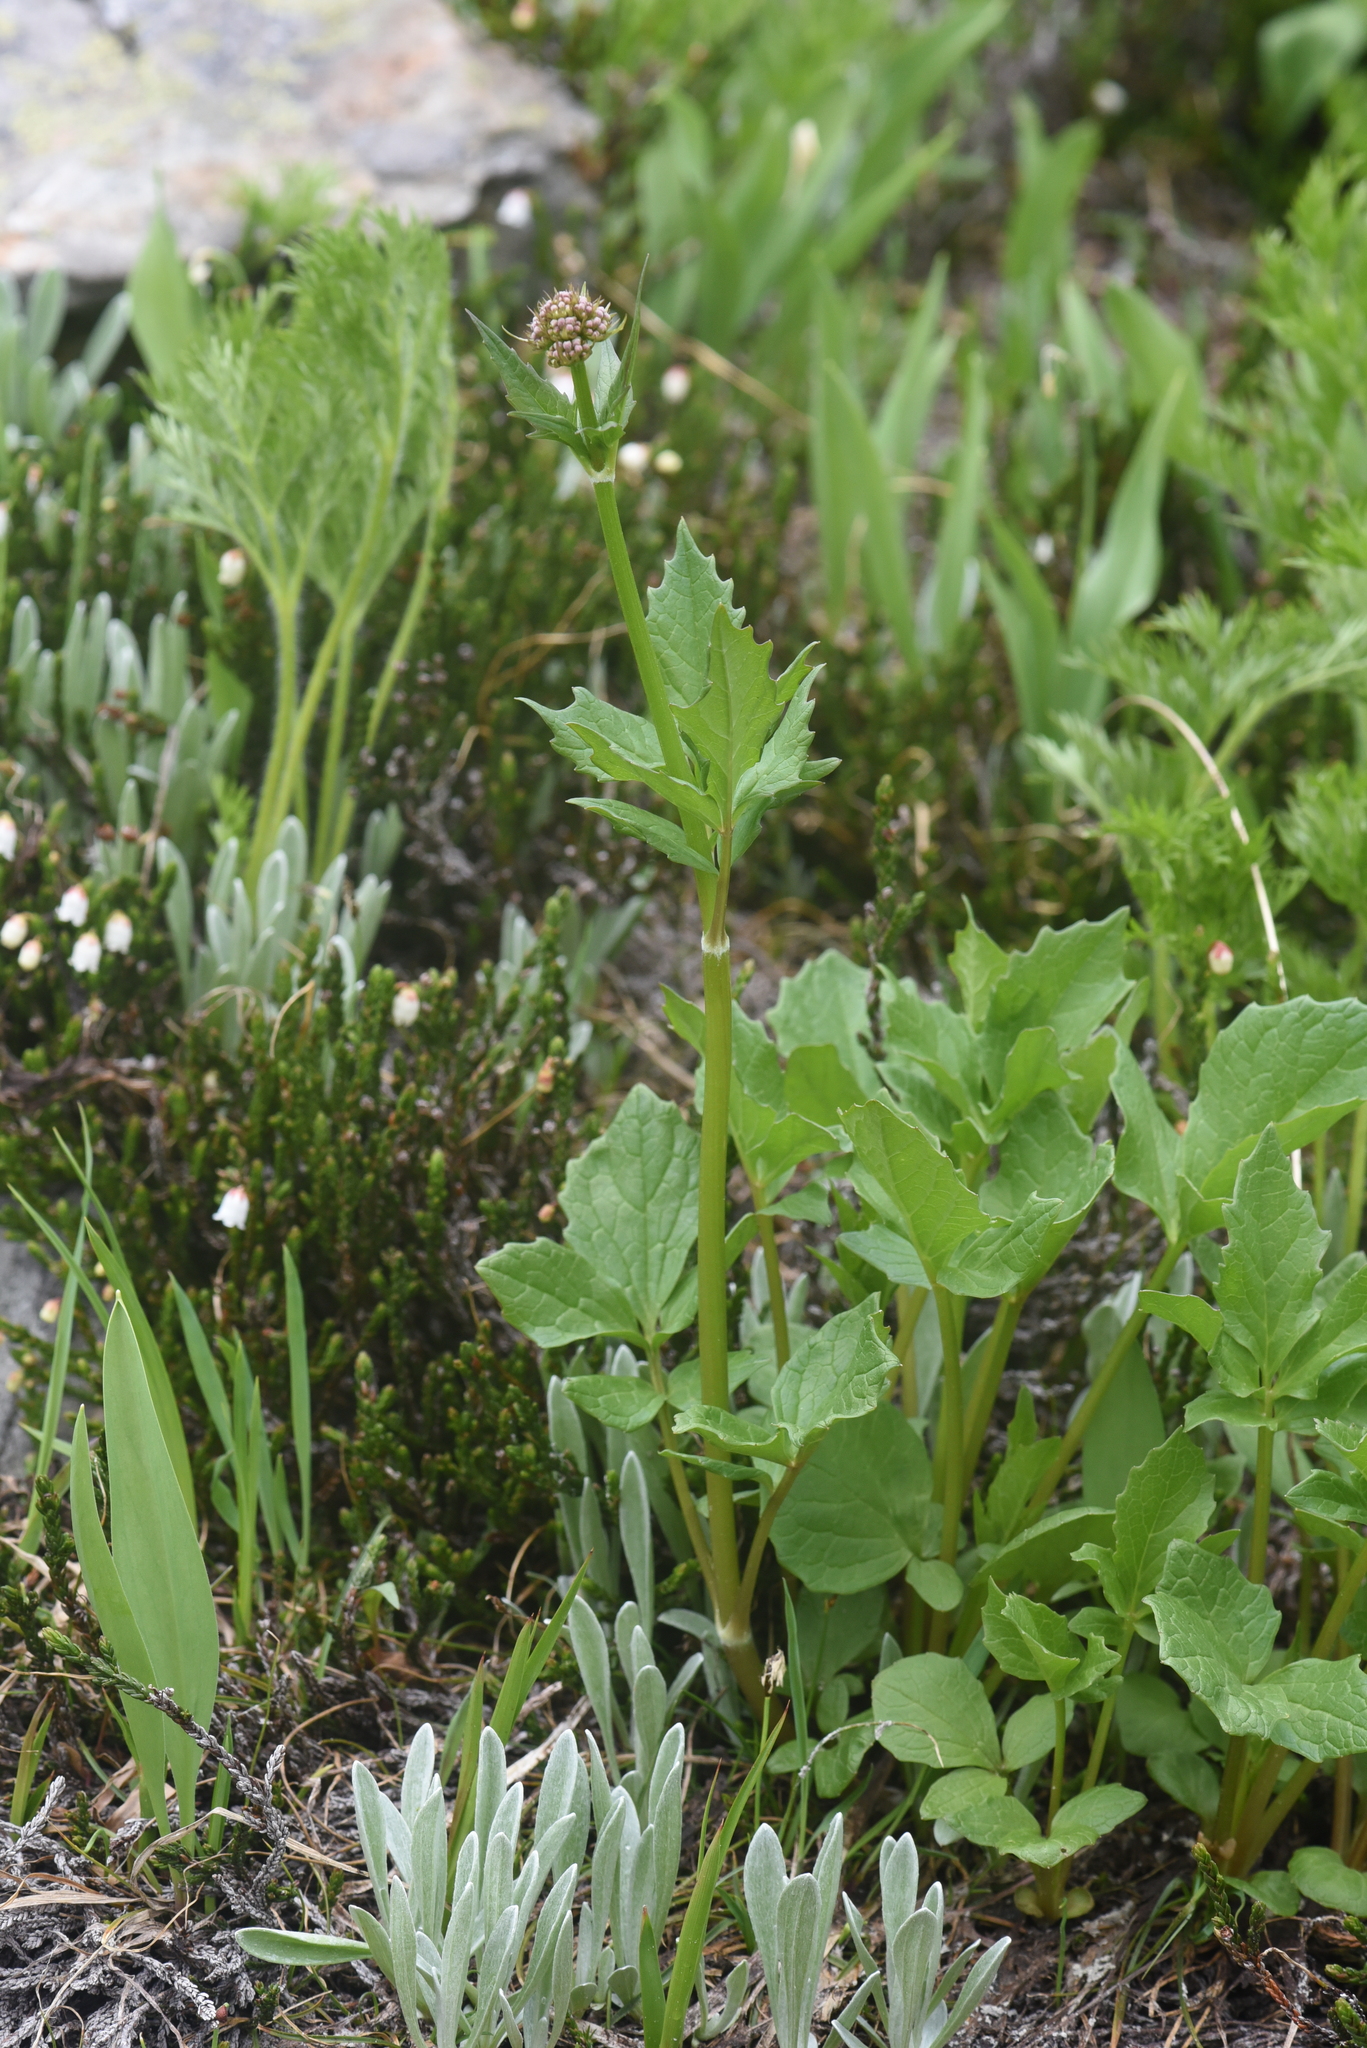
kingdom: Plantae
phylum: Tracheophyta
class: Magnoliopsida
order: Dipsacales
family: Caprifoliaceae
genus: Valeriana
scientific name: Valeriana sitchensis
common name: Pacific valerian
